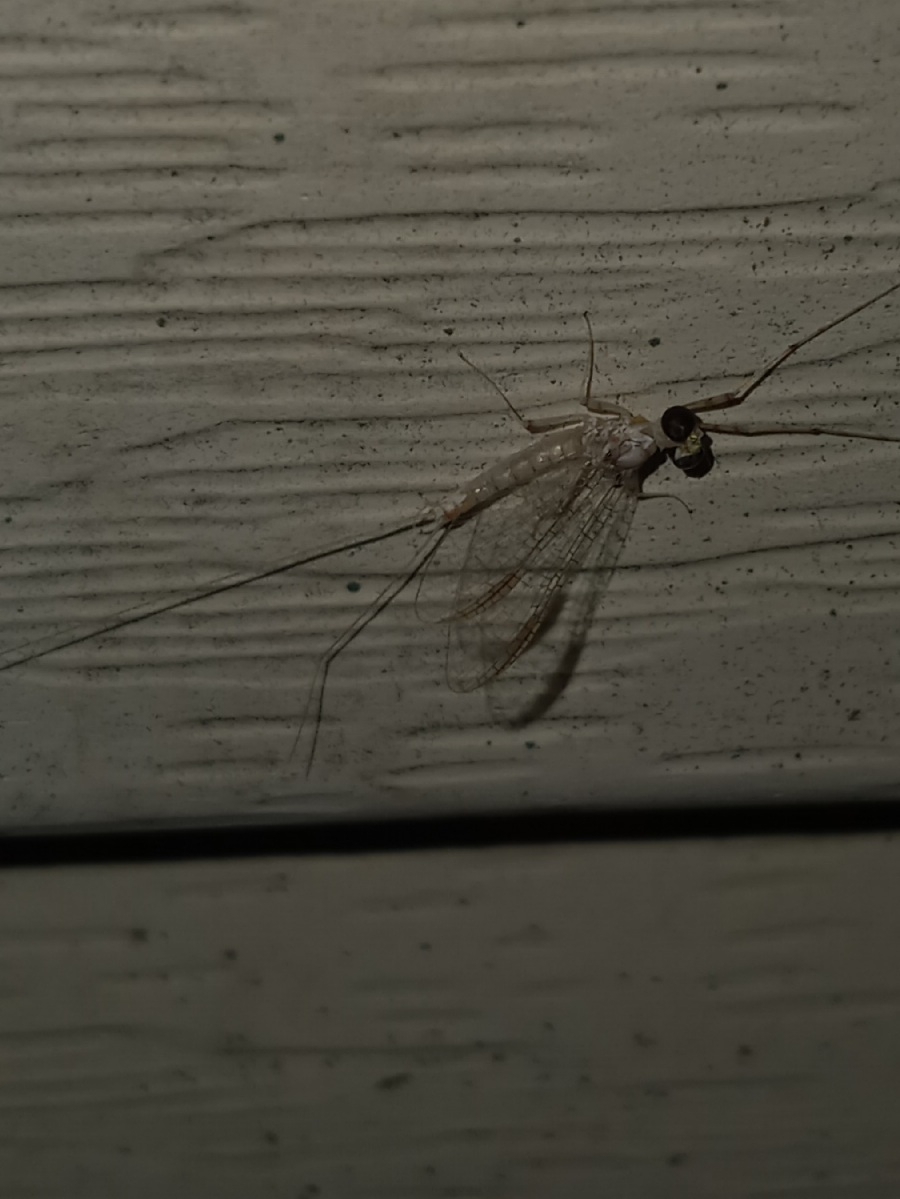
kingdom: Animalia
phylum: Arthropoda
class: Insecta
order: Ephemeroptera
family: Heptageniidae
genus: Maccaffertium
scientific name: Maccaffertium terminatum
